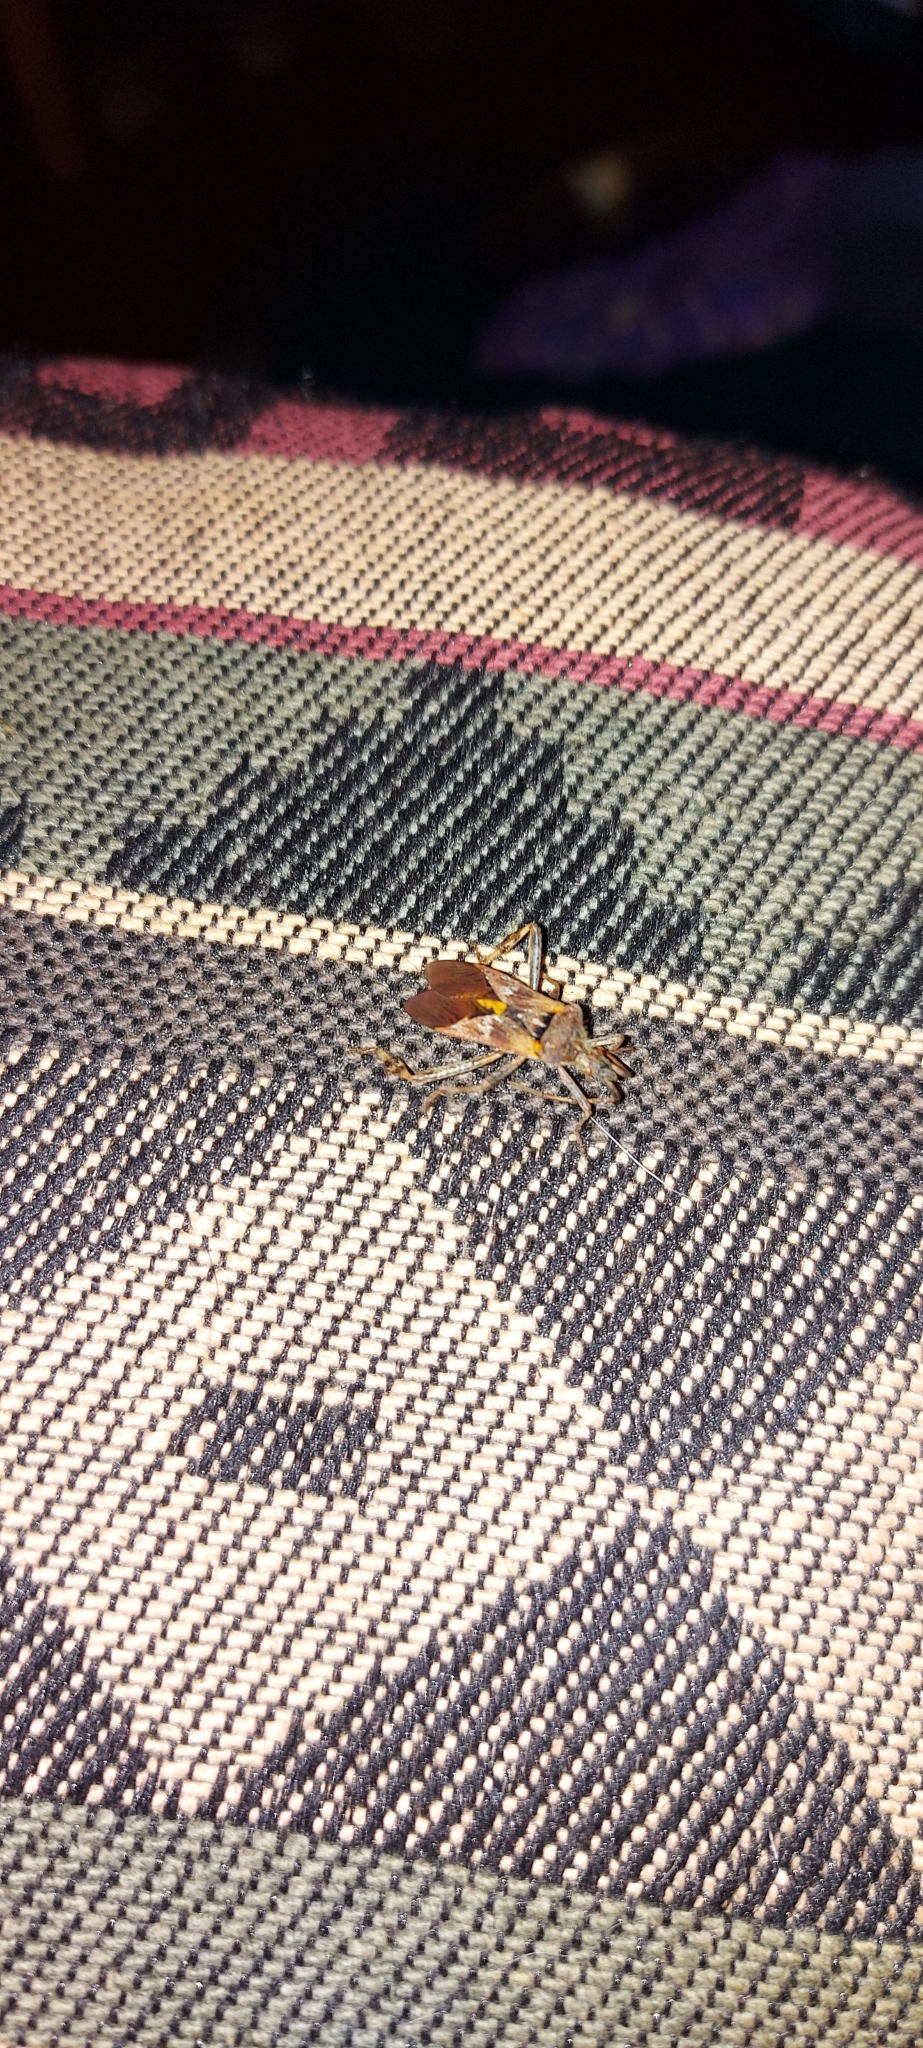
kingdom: Animalia
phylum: Arthropoda
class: Insecta
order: Hemiptera
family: Coreidae
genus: Leptoglossus
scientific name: Leptoglossus occidentalis
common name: Western conifer-seed bug
